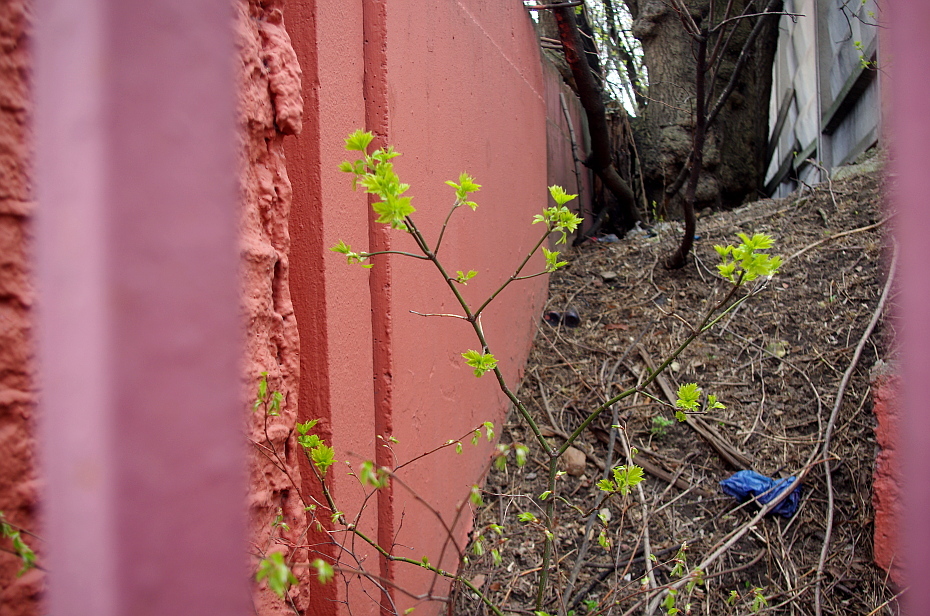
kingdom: Plantae
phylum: Tracheophyta
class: Magnoliopsida
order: Sapindales
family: Sapindaceae
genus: Acer
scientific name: Acer negundo
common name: Ashleaf maple
